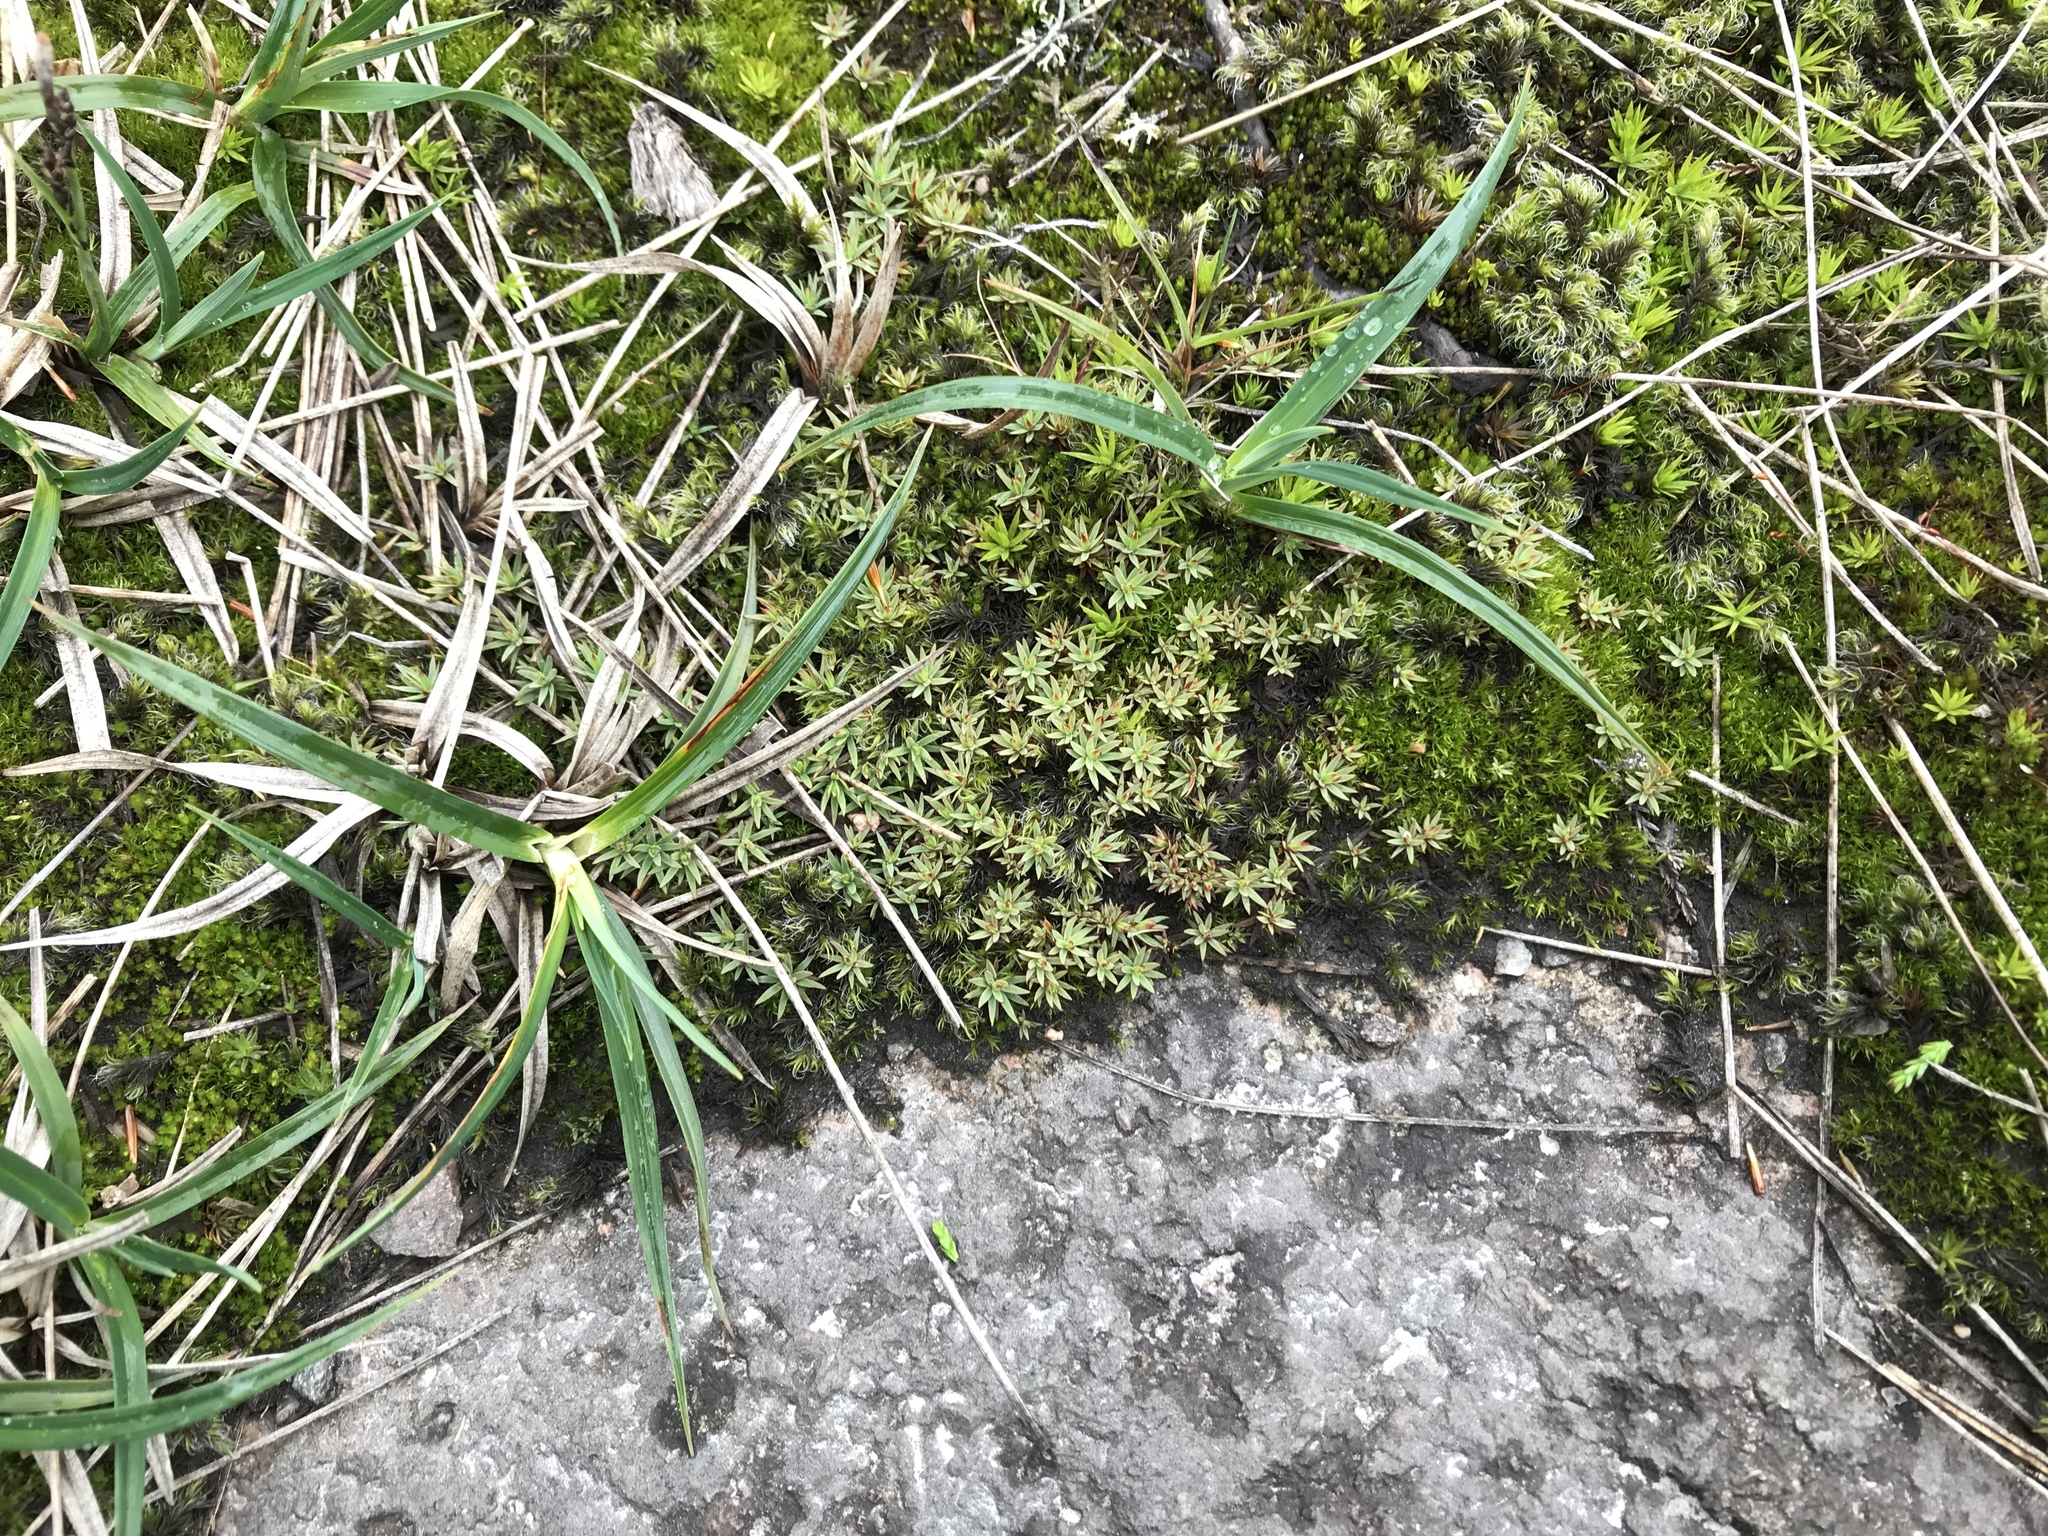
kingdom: Plantae
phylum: Bryophyta
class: Polytrichopsida
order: Polytrichales
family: Polytrichaceae
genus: Pogonatum
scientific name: Pogonatum urnigerum
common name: Urn hair moss
